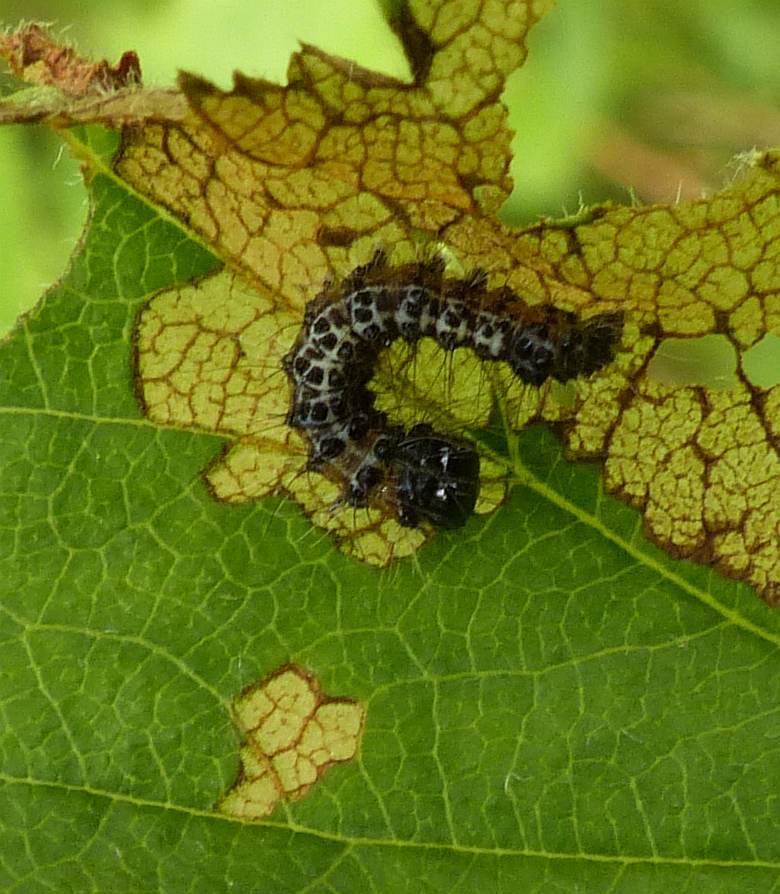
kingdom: Animalia
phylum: Arthropoda
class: Insecta
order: Lepidoptera
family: Noctuidae
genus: Acronicta
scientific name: Acronicta interrupta
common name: Interrupted dagger
